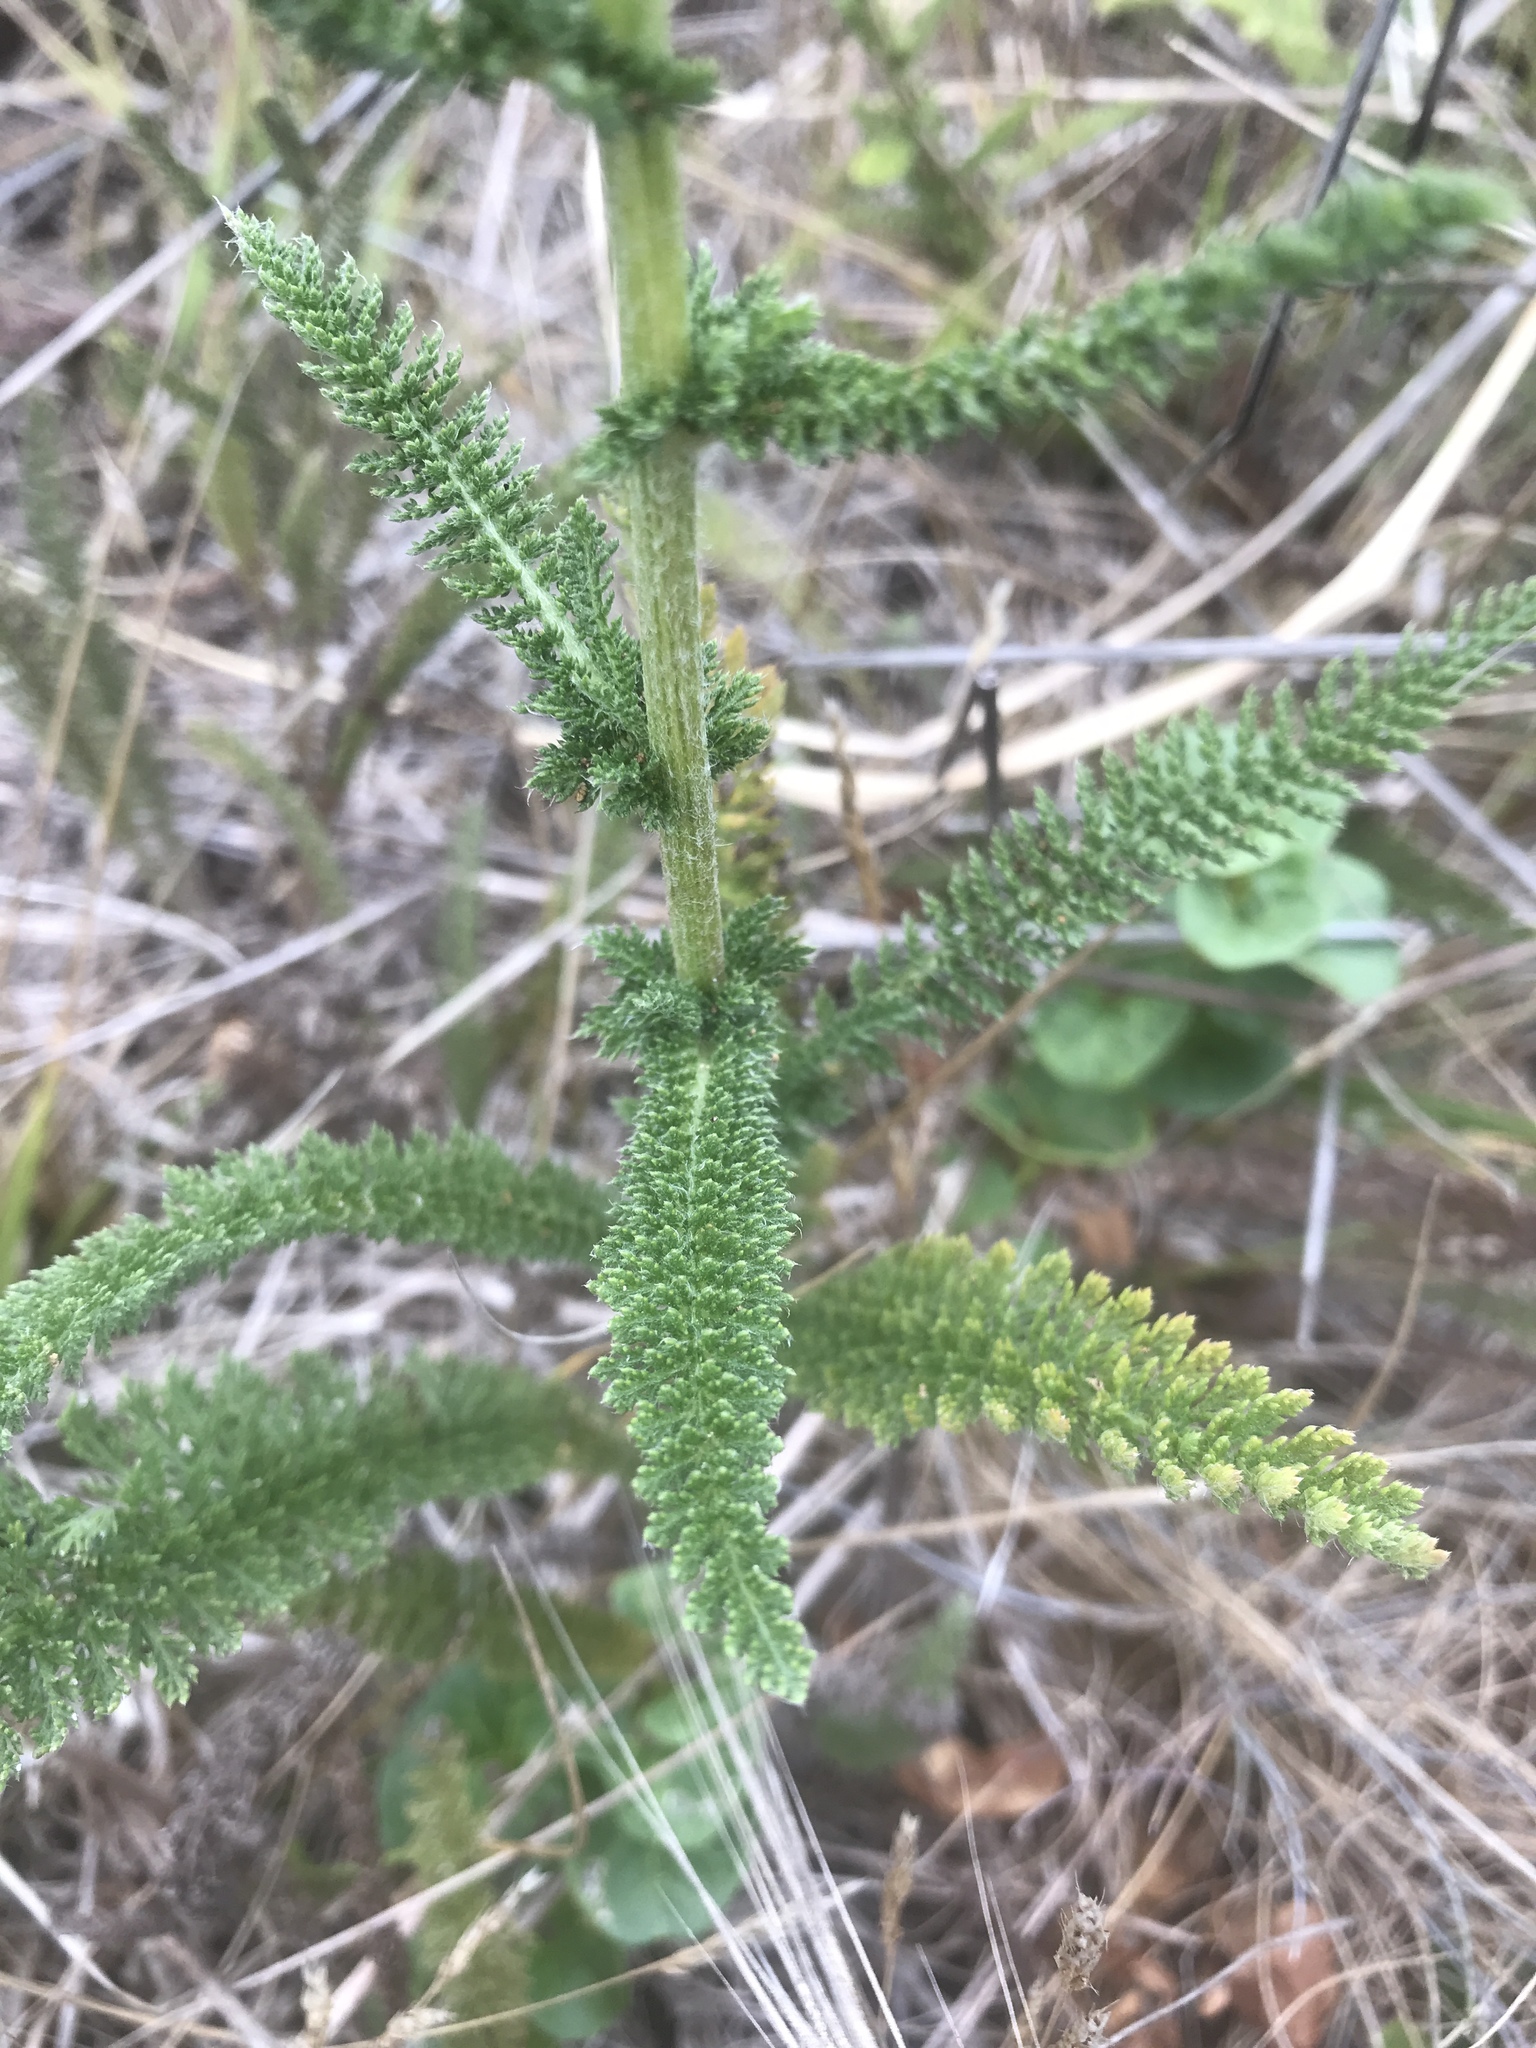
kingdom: Plantae
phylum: Tracheophyta
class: Magnoliopsida
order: Asterales
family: Asteraceae
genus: Achillea
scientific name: Achillea millefolium
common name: Yarrow
